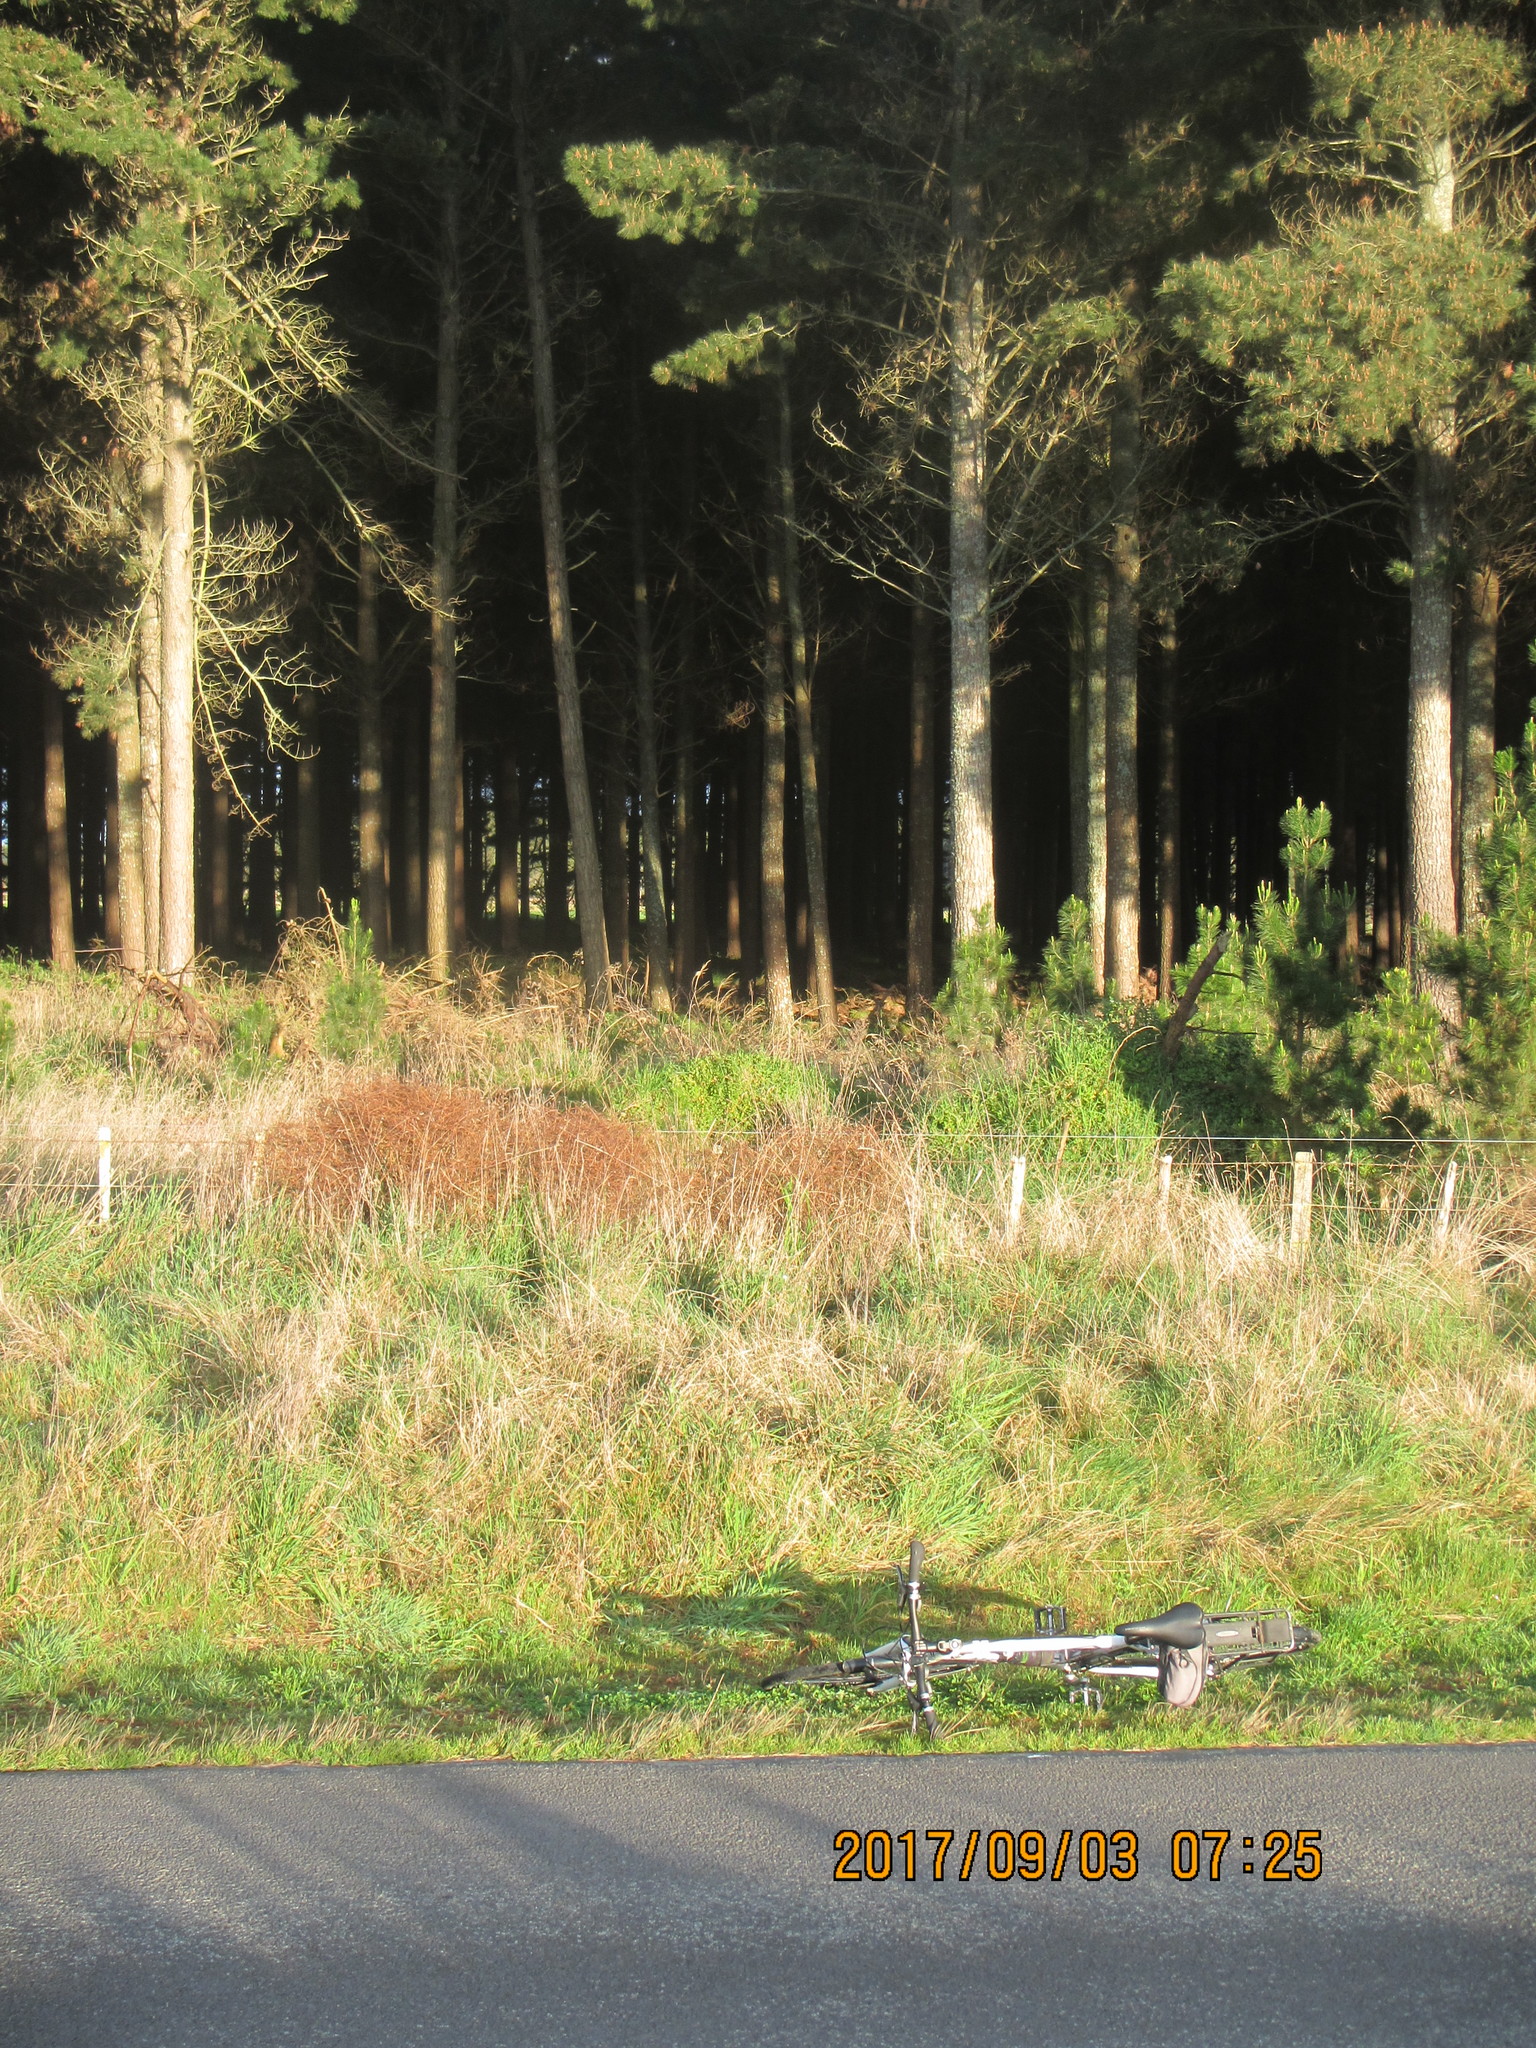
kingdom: Plantae
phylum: Tracheophyta
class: Magnoliopsida
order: Caryophyllales
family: Polygonaceae
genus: Muehlenbeckia
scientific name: Muehlenbeckia complexa
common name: Wireplant
